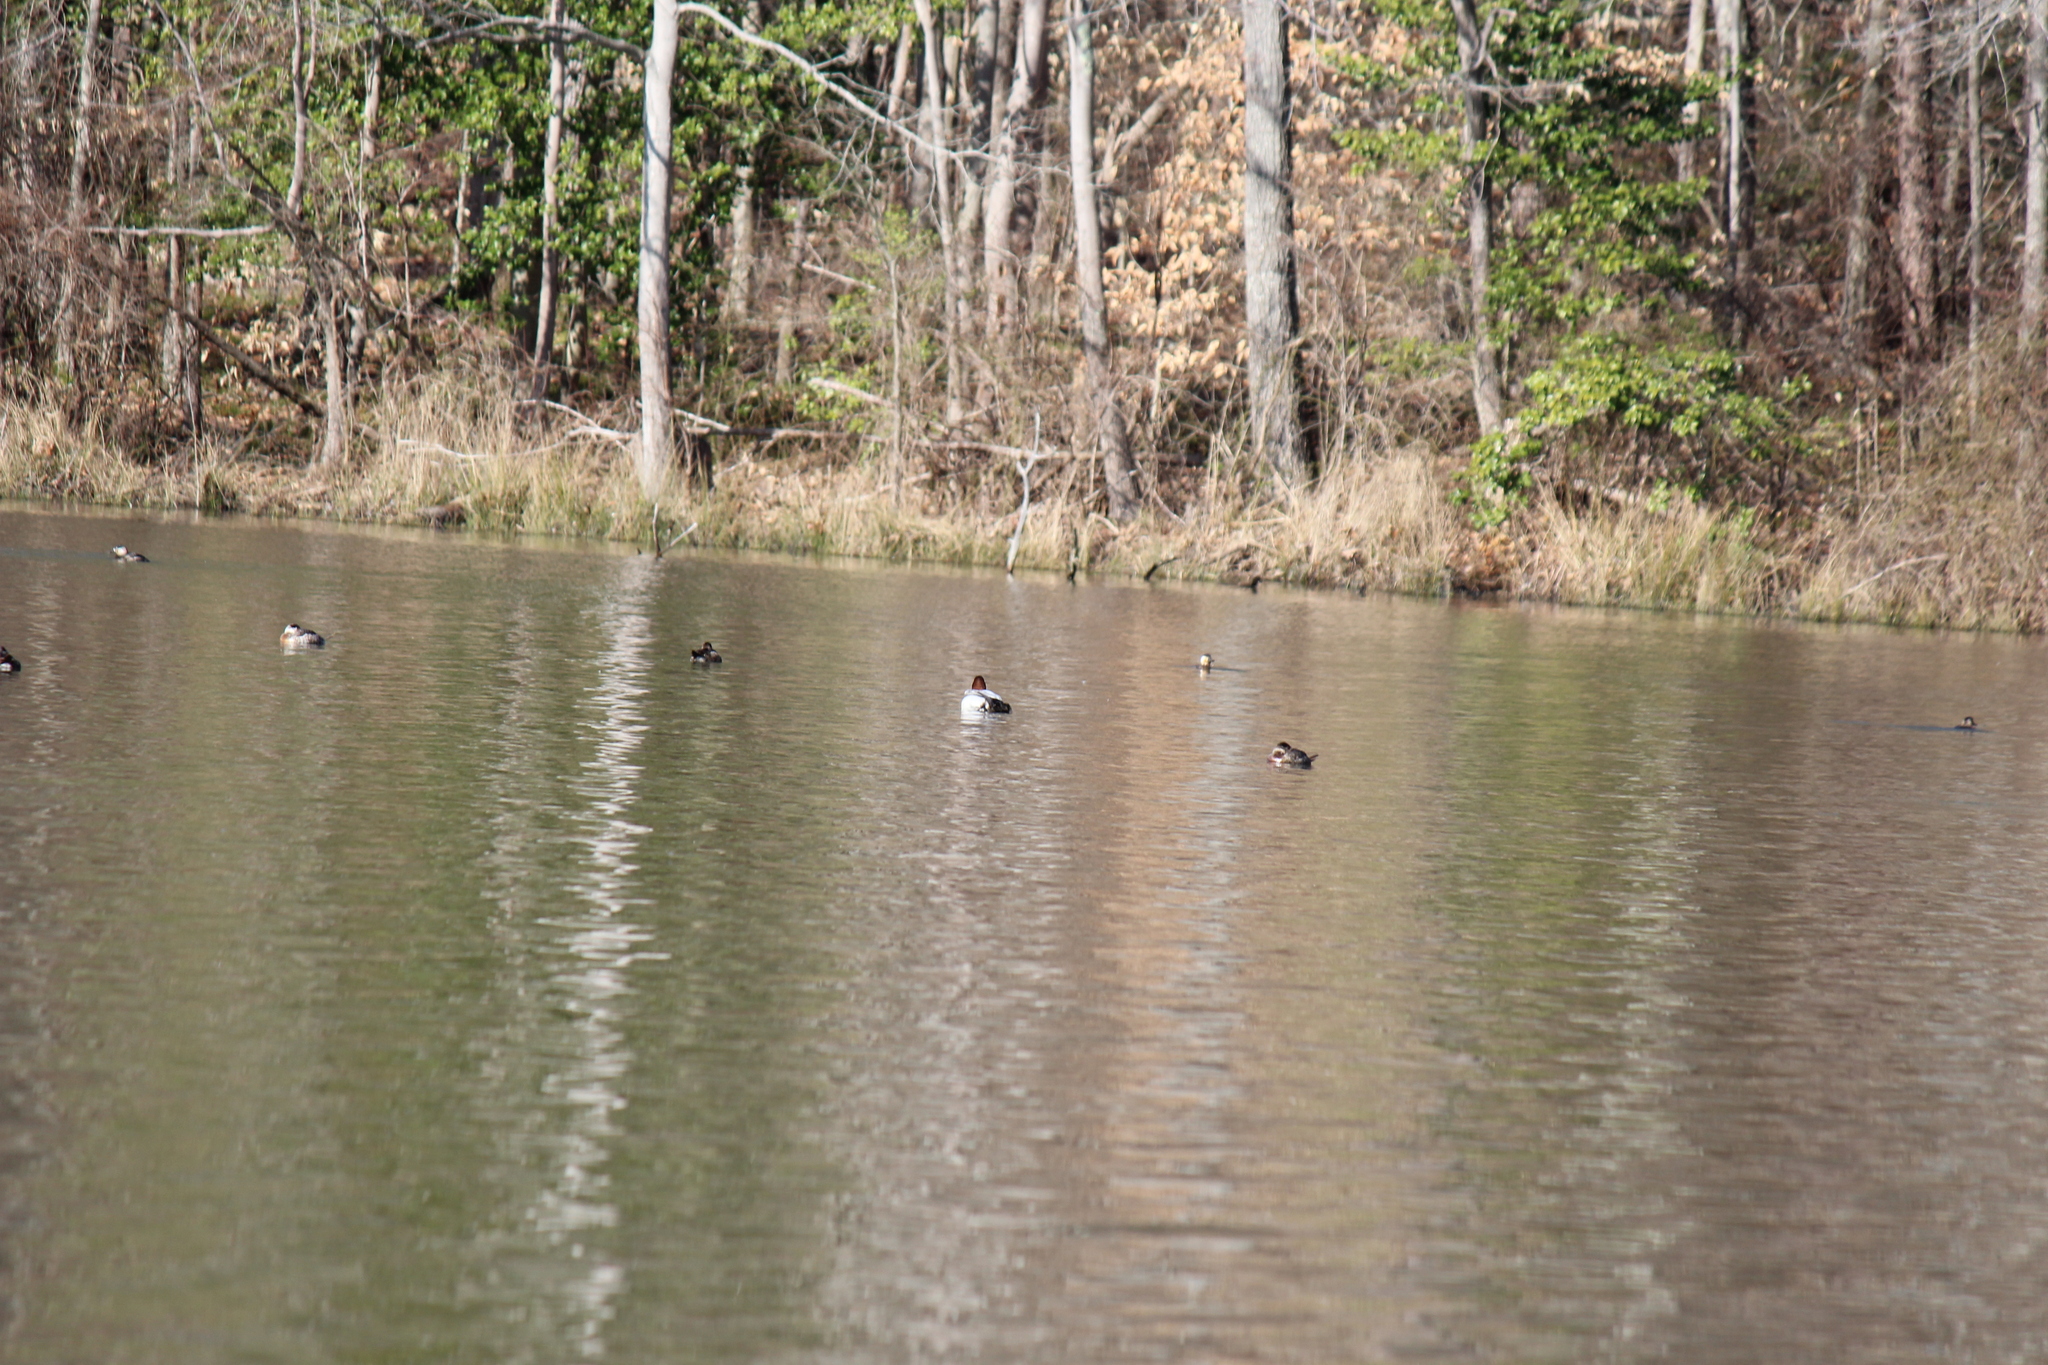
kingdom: Animalia
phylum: Chordata
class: Aves
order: Anseriformes
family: Anatidae
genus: Aythya
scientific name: Aythya valisineria
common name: Canvasback
